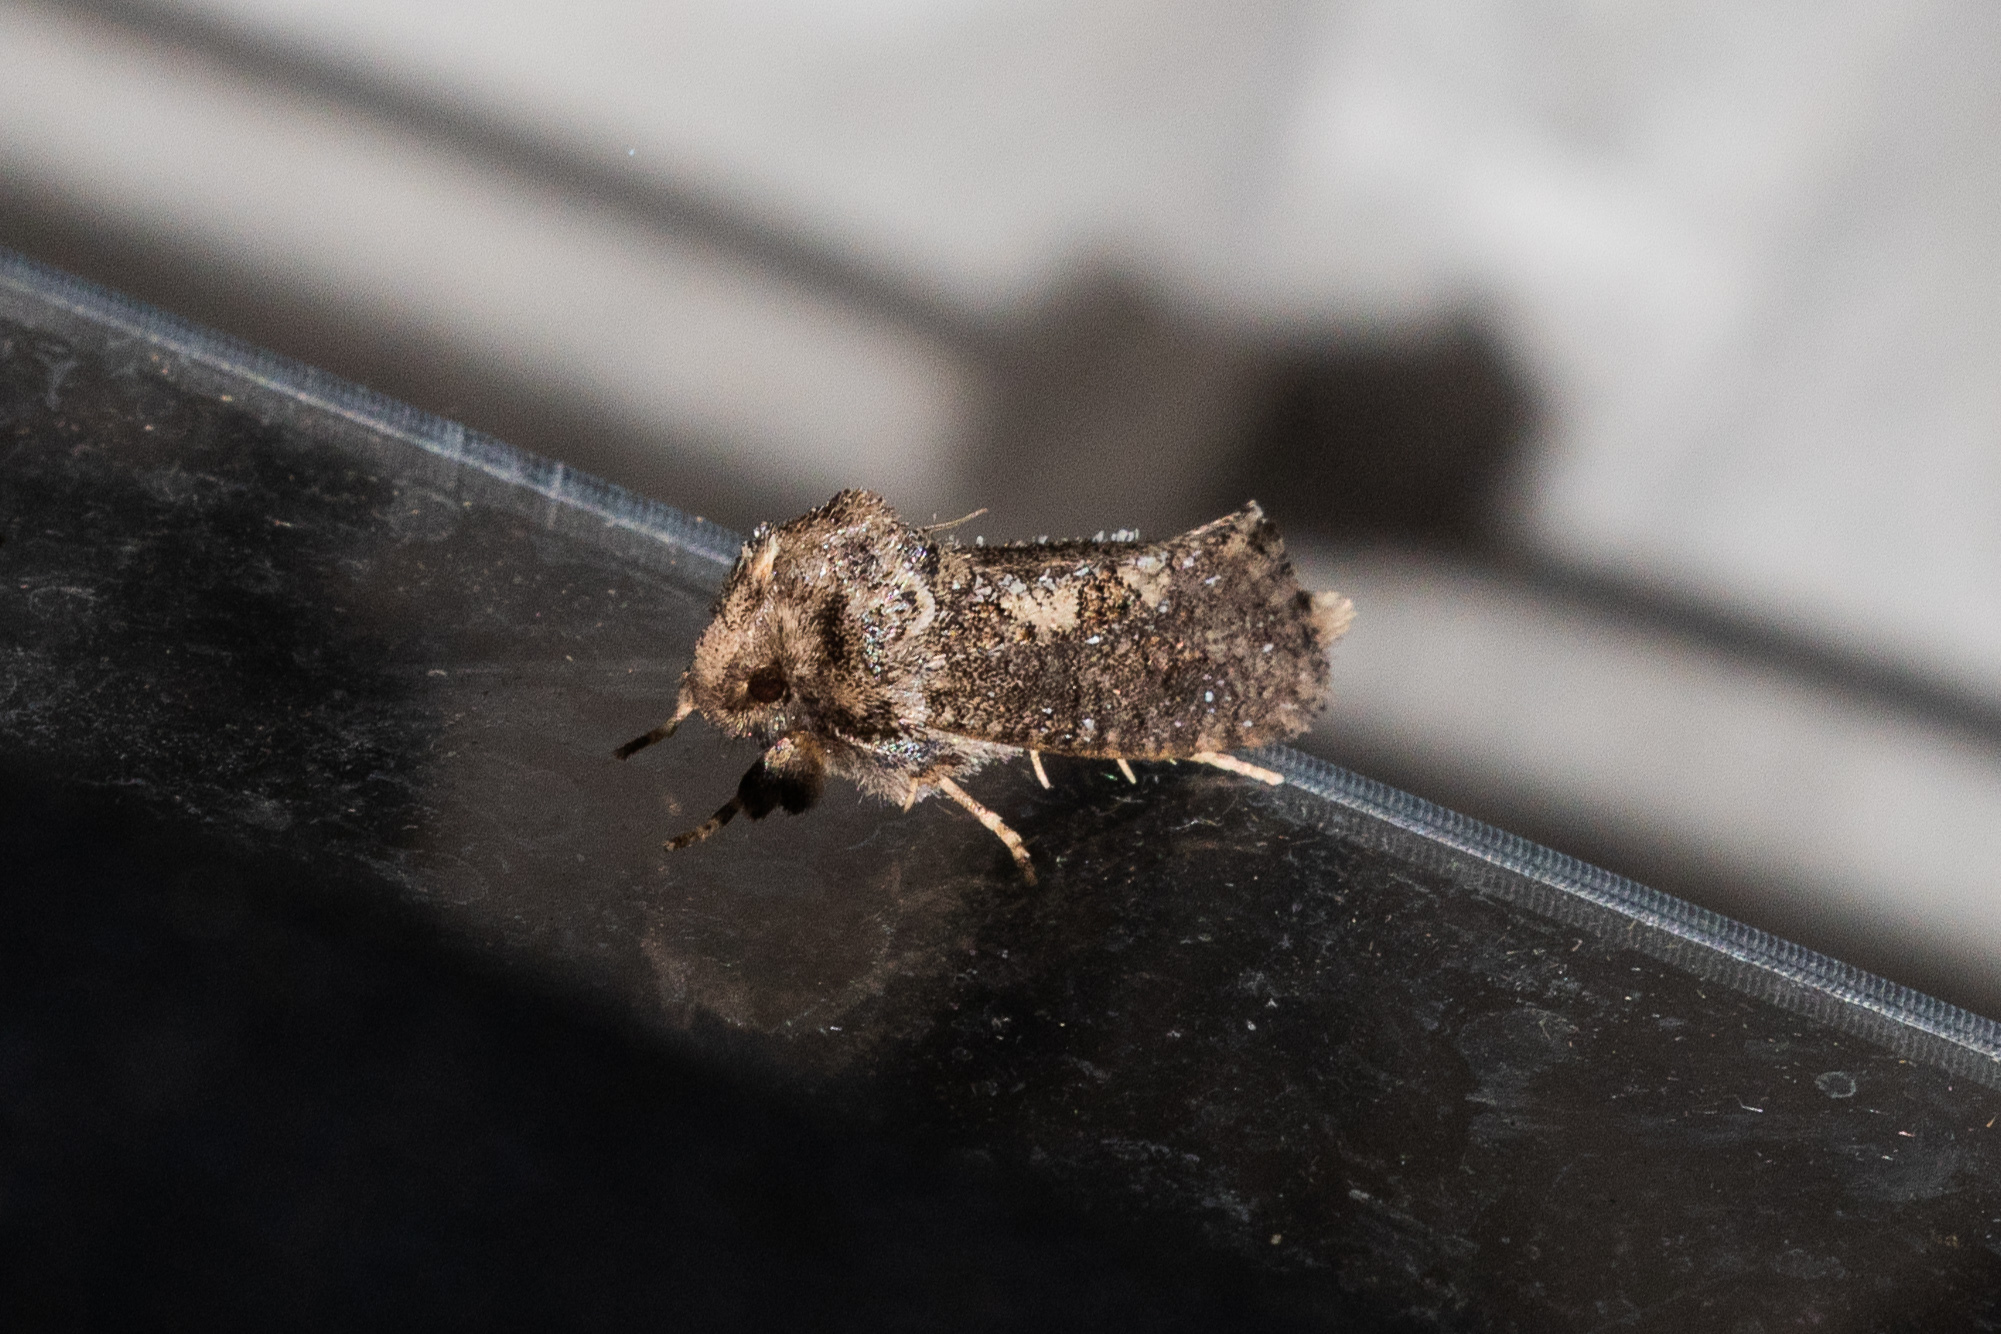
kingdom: Animalia
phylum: Arthropoda
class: Insecta
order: Lepidoptera
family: Tineidae
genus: Acrolophus
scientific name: Acrolophus arcanella
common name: Arcane grass tubeworm moth
